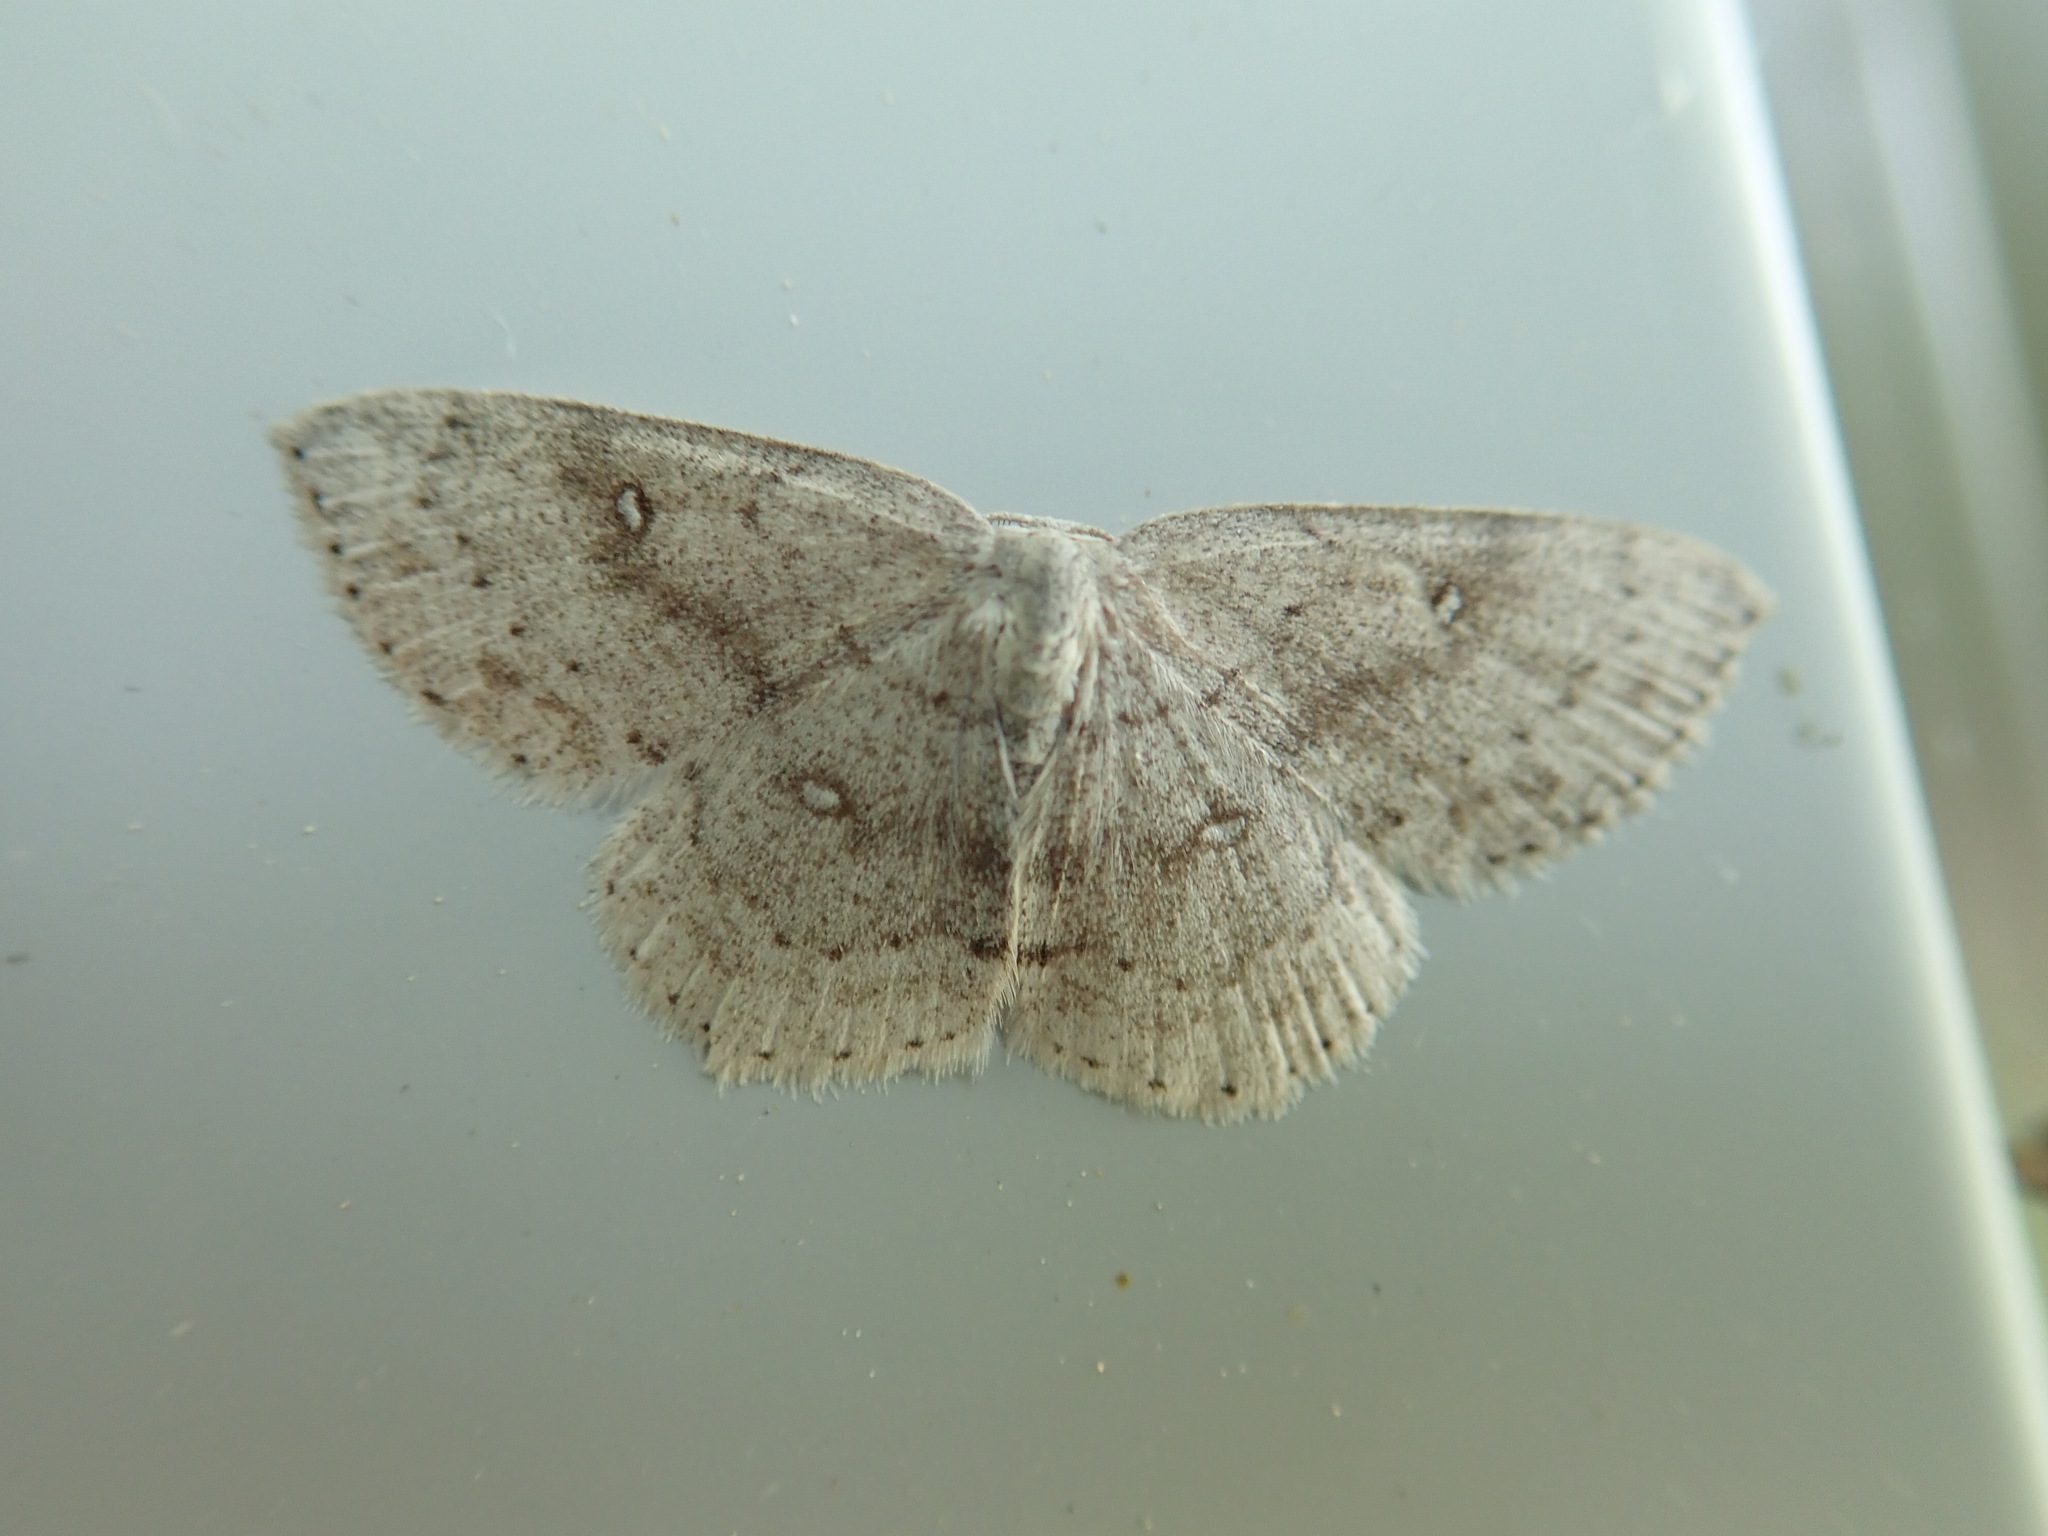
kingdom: Animalia
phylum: Arthropoda
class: Insecta
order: Lepidoptera
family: Geometridae
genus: Cyclophora
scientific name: Cyclophora pendulinaria
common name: Sweet fern geometer
